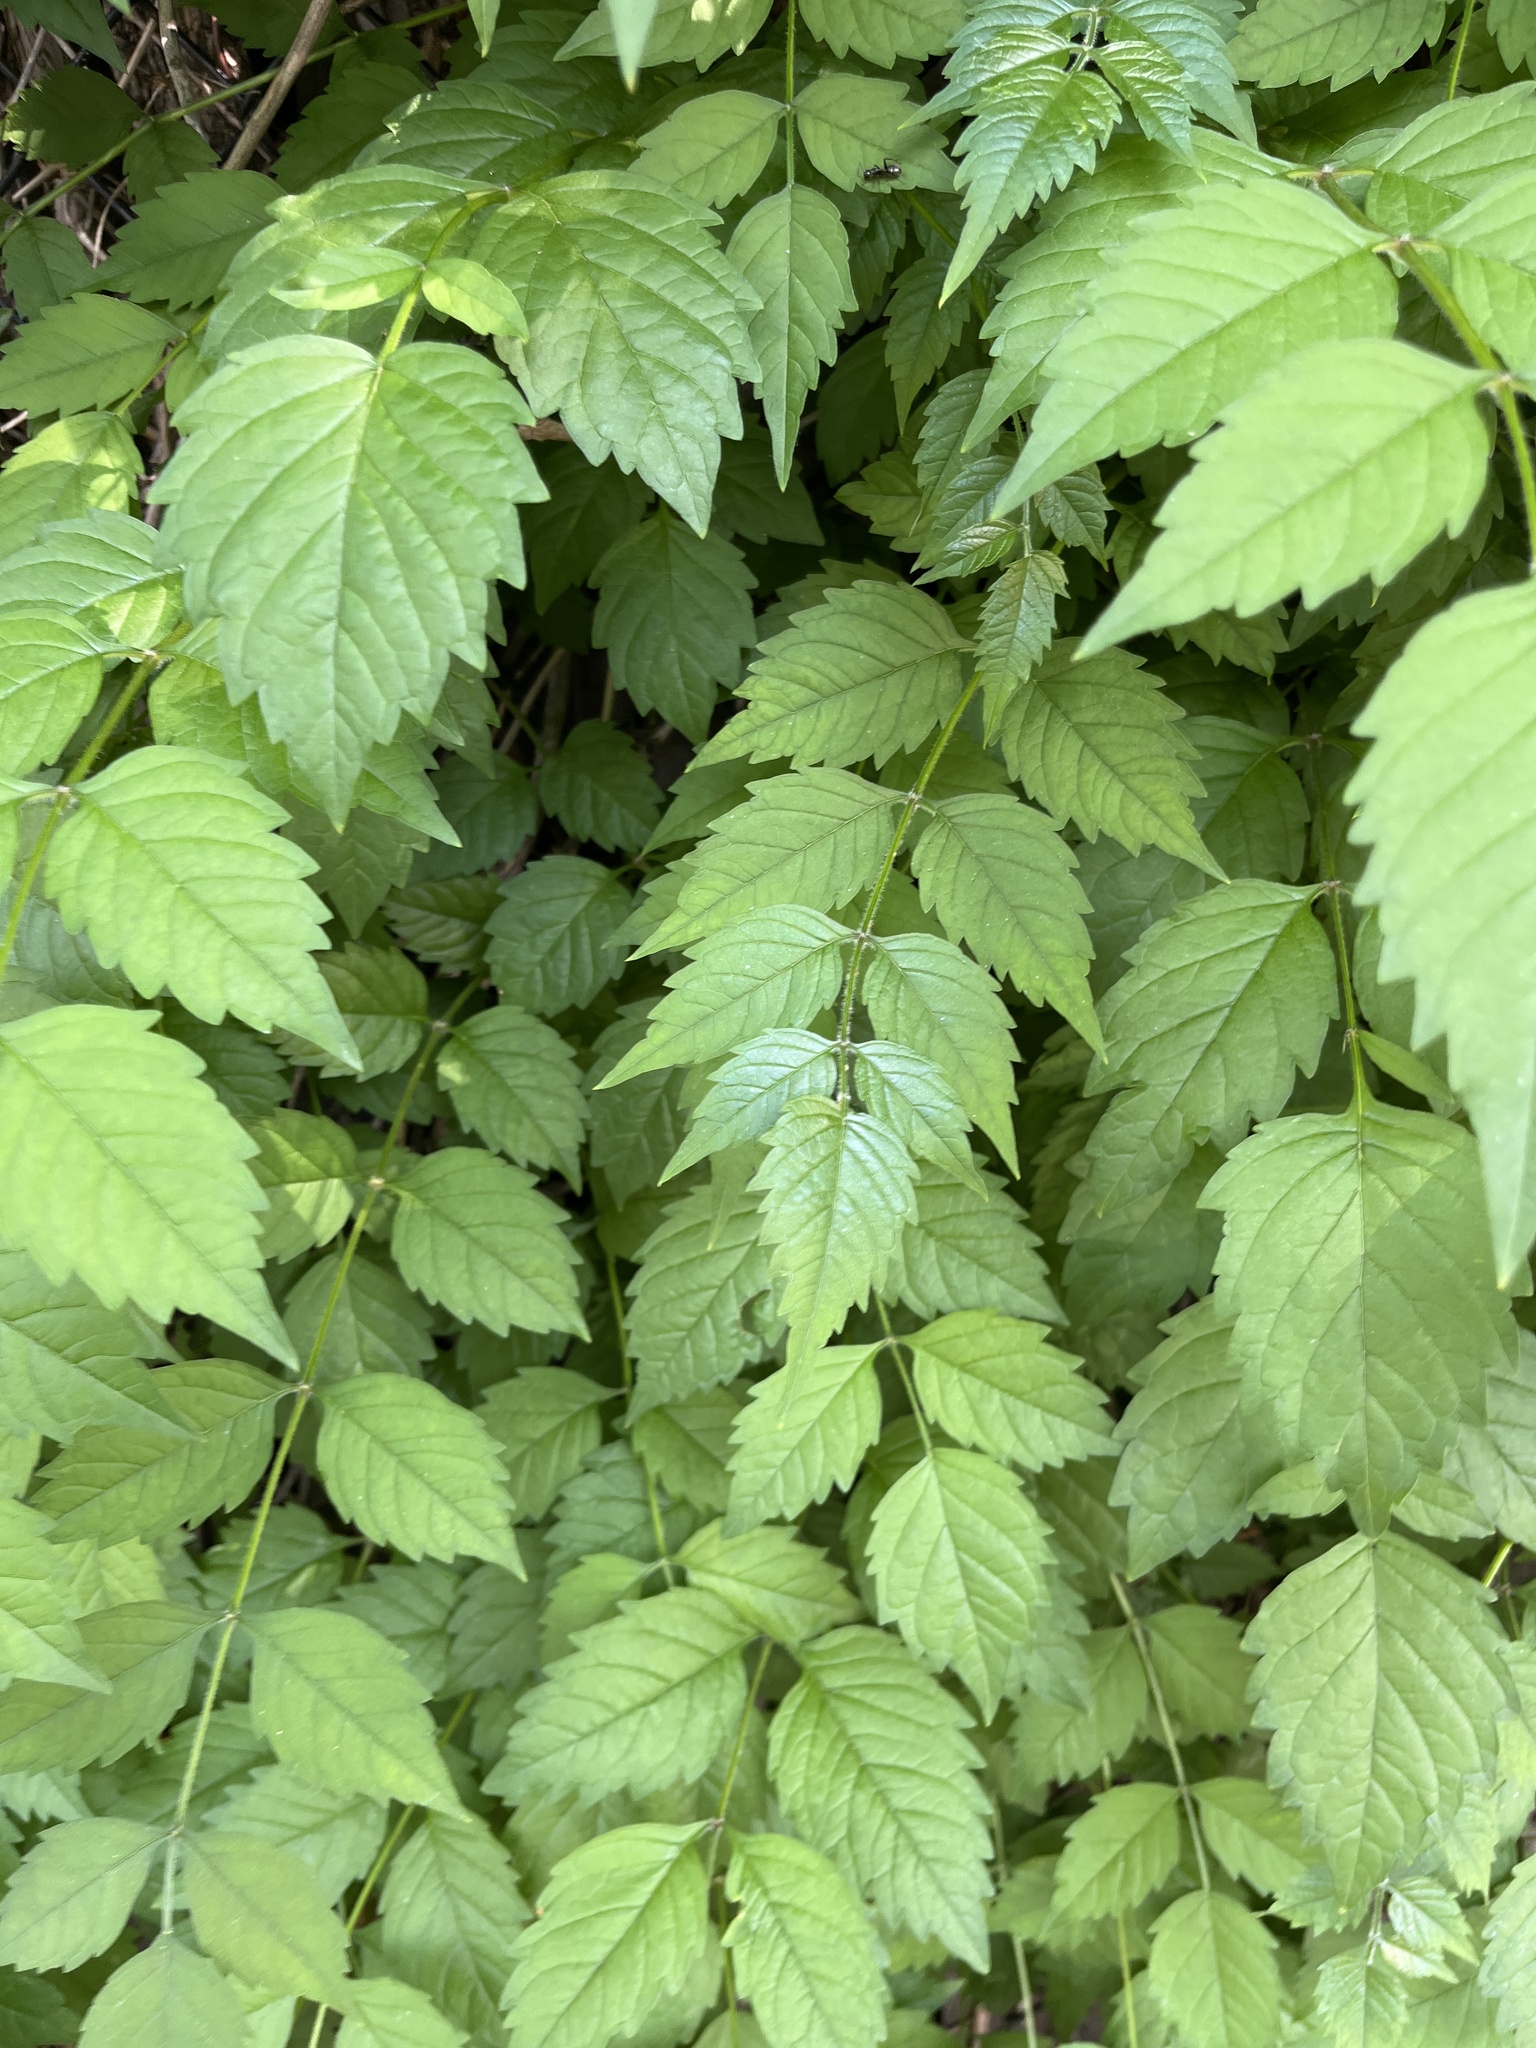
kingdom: Plantae
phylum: Tracheophyta
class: Magnoliopsida
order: Lamiales
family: Bignoniaceae
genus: Campsis
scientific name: Campsis radicans
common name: Trumpet-creeper
